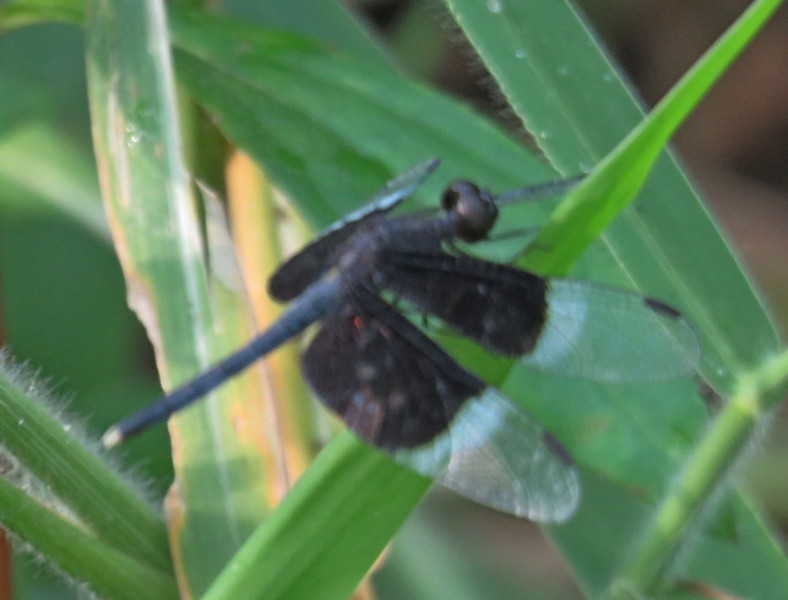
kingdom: Animalia
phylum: Arthropoda
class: Insecta
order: Odonata
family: Libellulidae
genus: Neurothemis
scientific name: Neurothemis tullia
